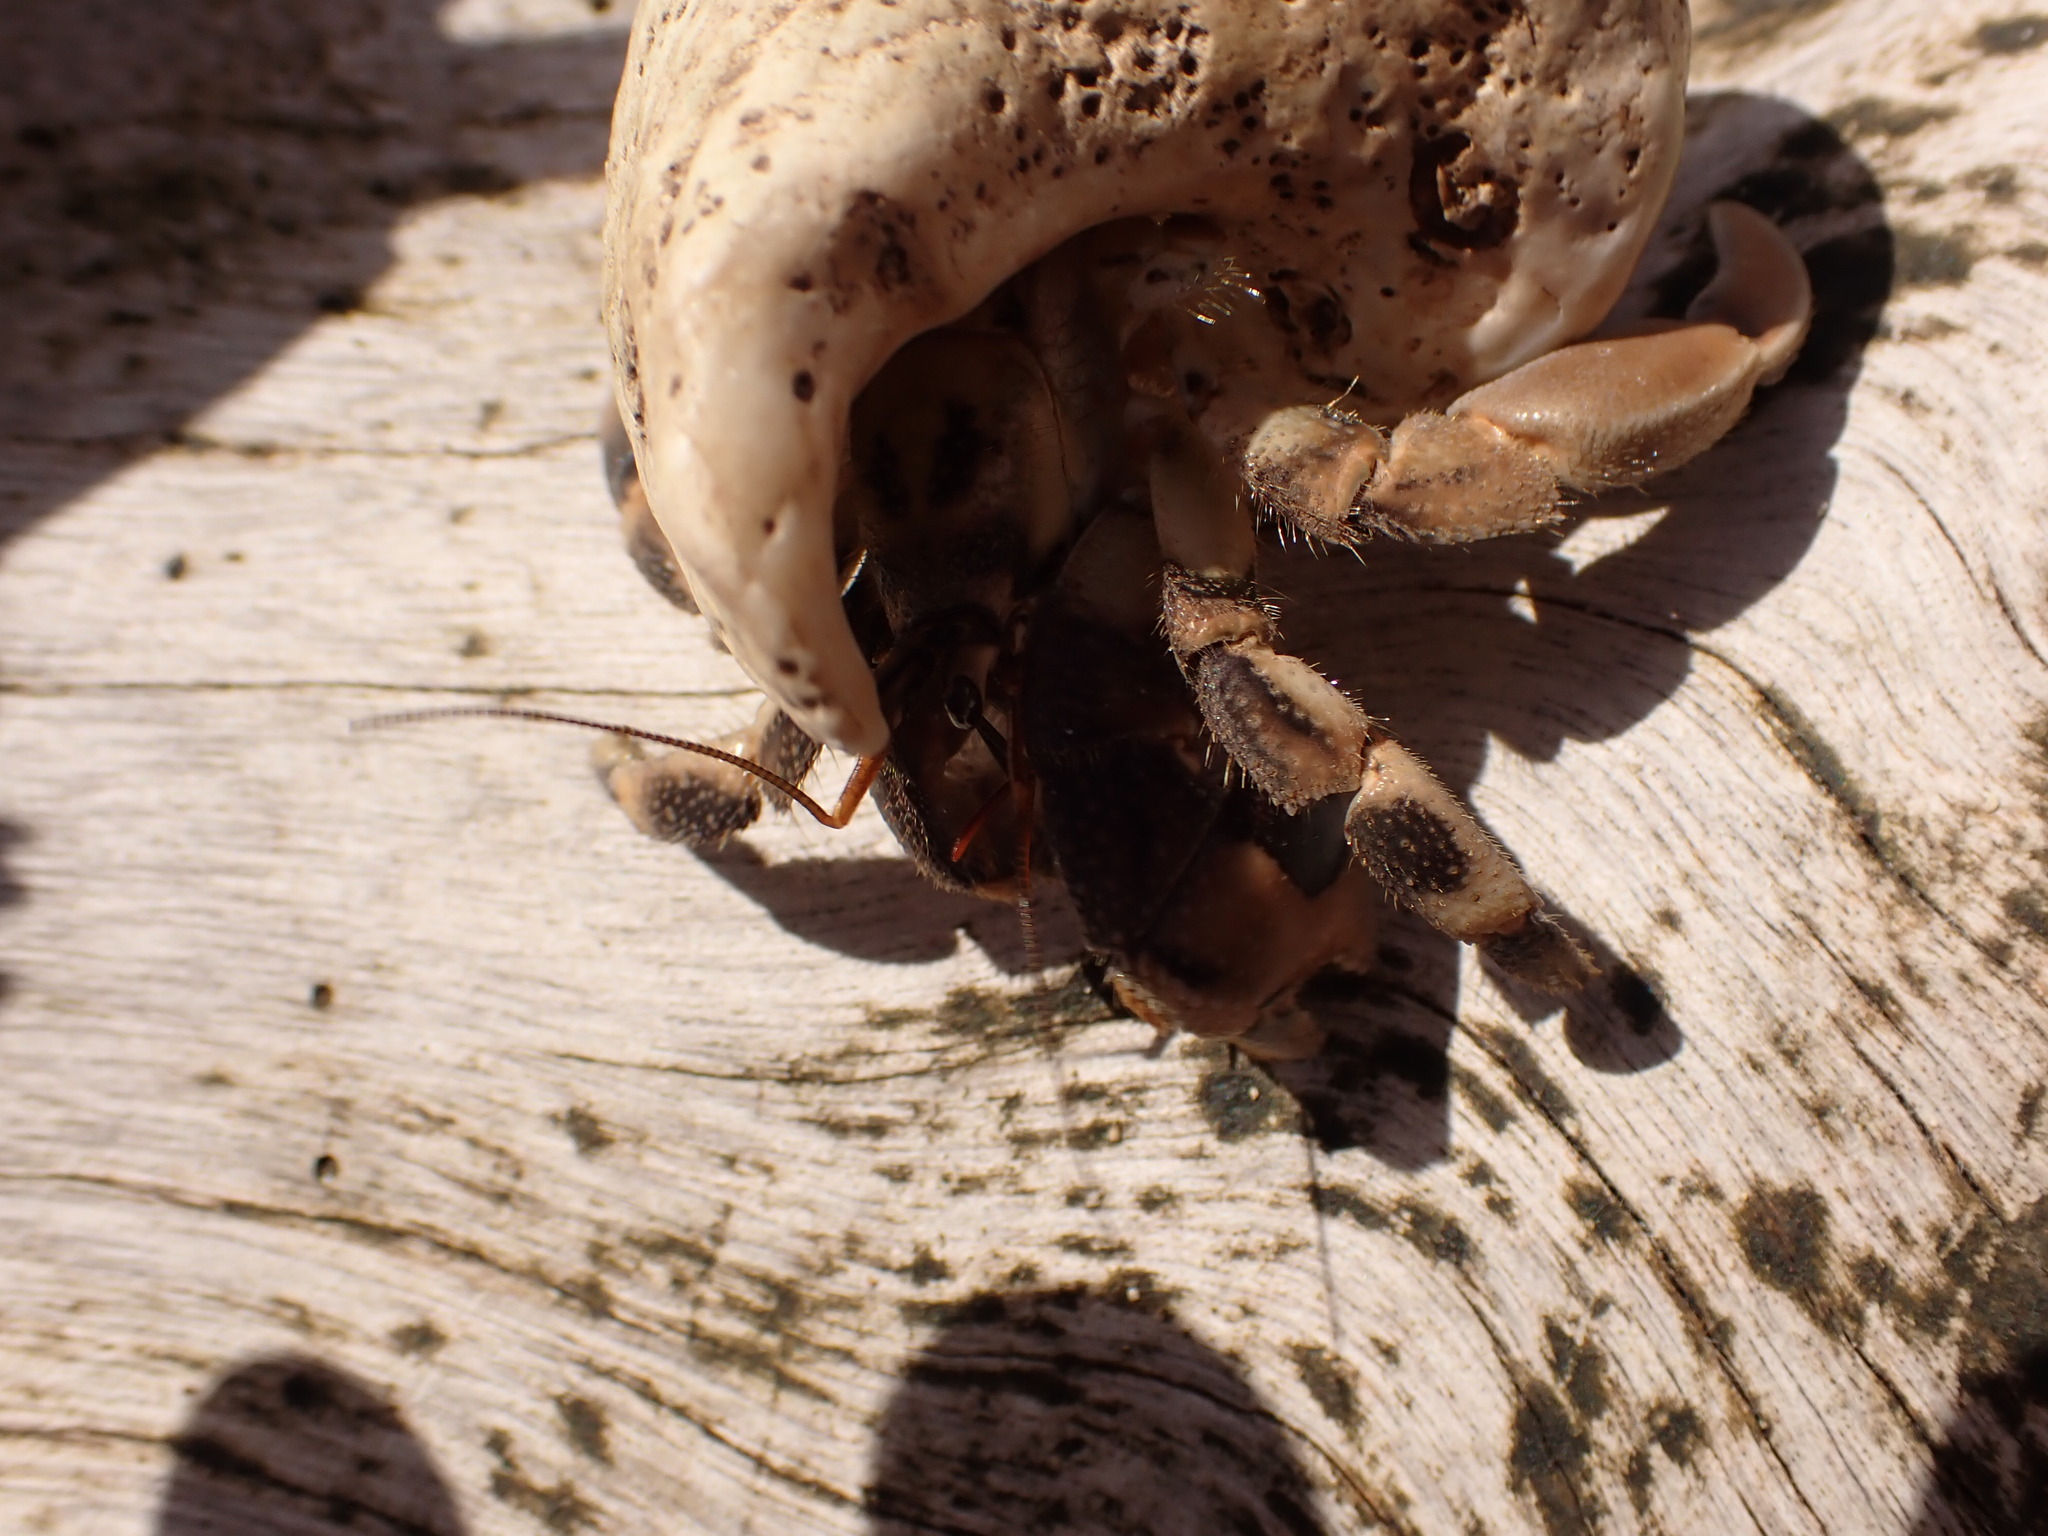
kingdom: Animalia
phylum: Arthropoda
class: Malacostraca
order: Decapoda
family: Coenobitidae
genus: Coenobita
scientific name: Coenobita rugosus
